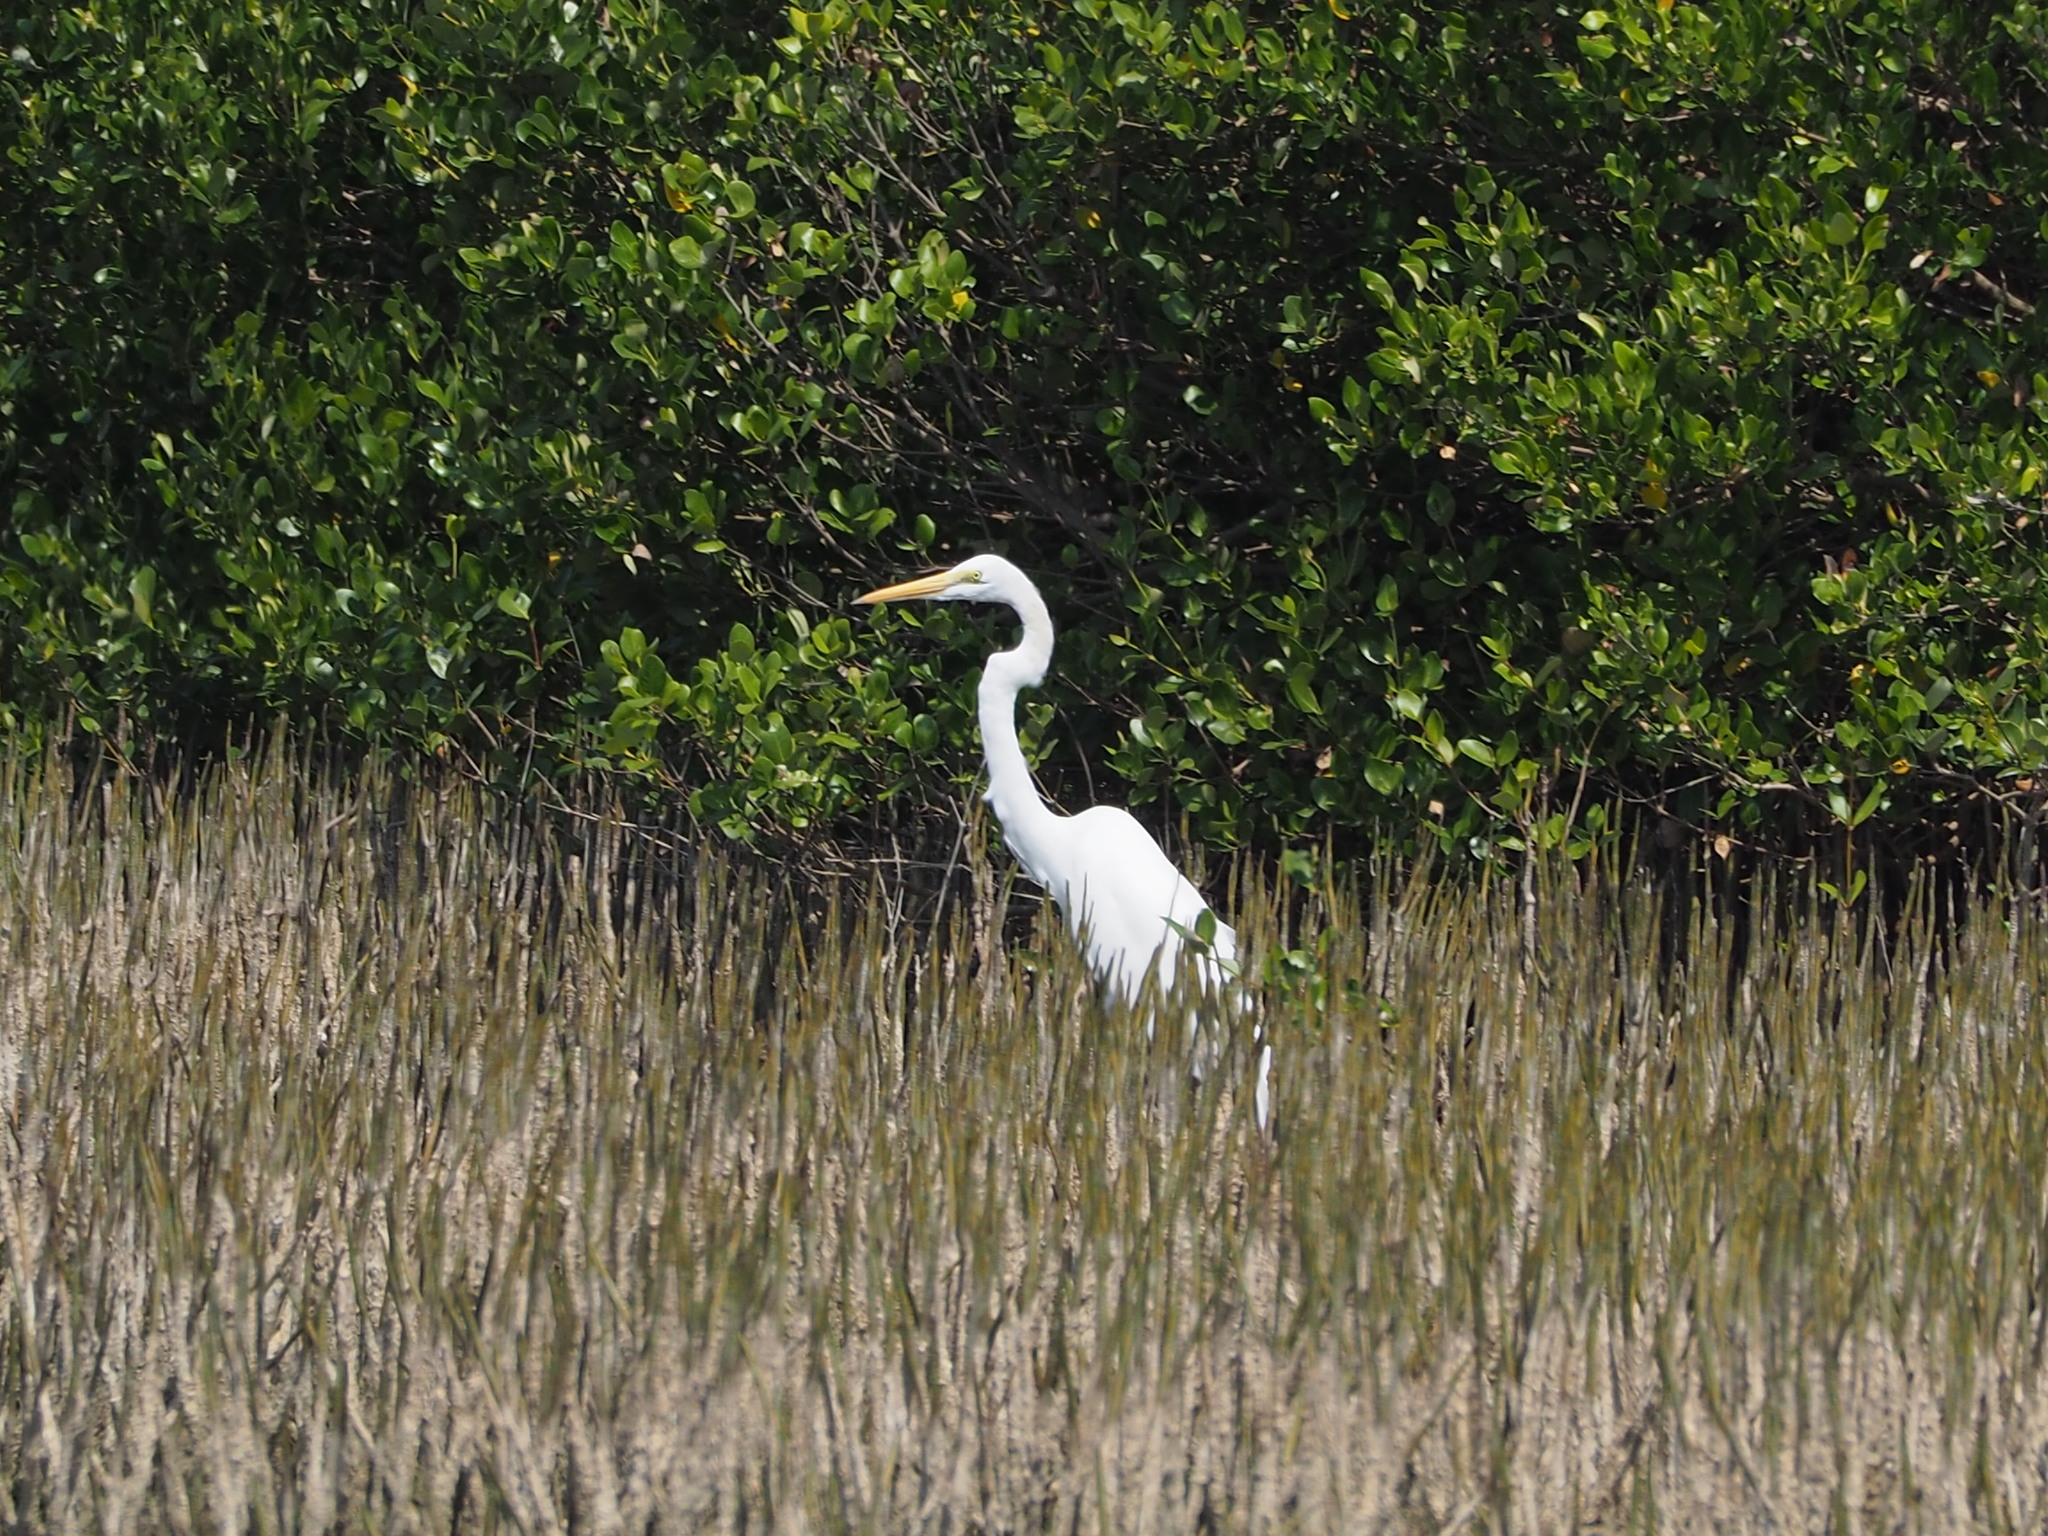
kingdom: Animalia
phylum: Chordata
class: Aves
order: Pelecaniformes
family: Ardeidae
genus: Ardea
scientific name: Ardea alba
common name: Great egret
